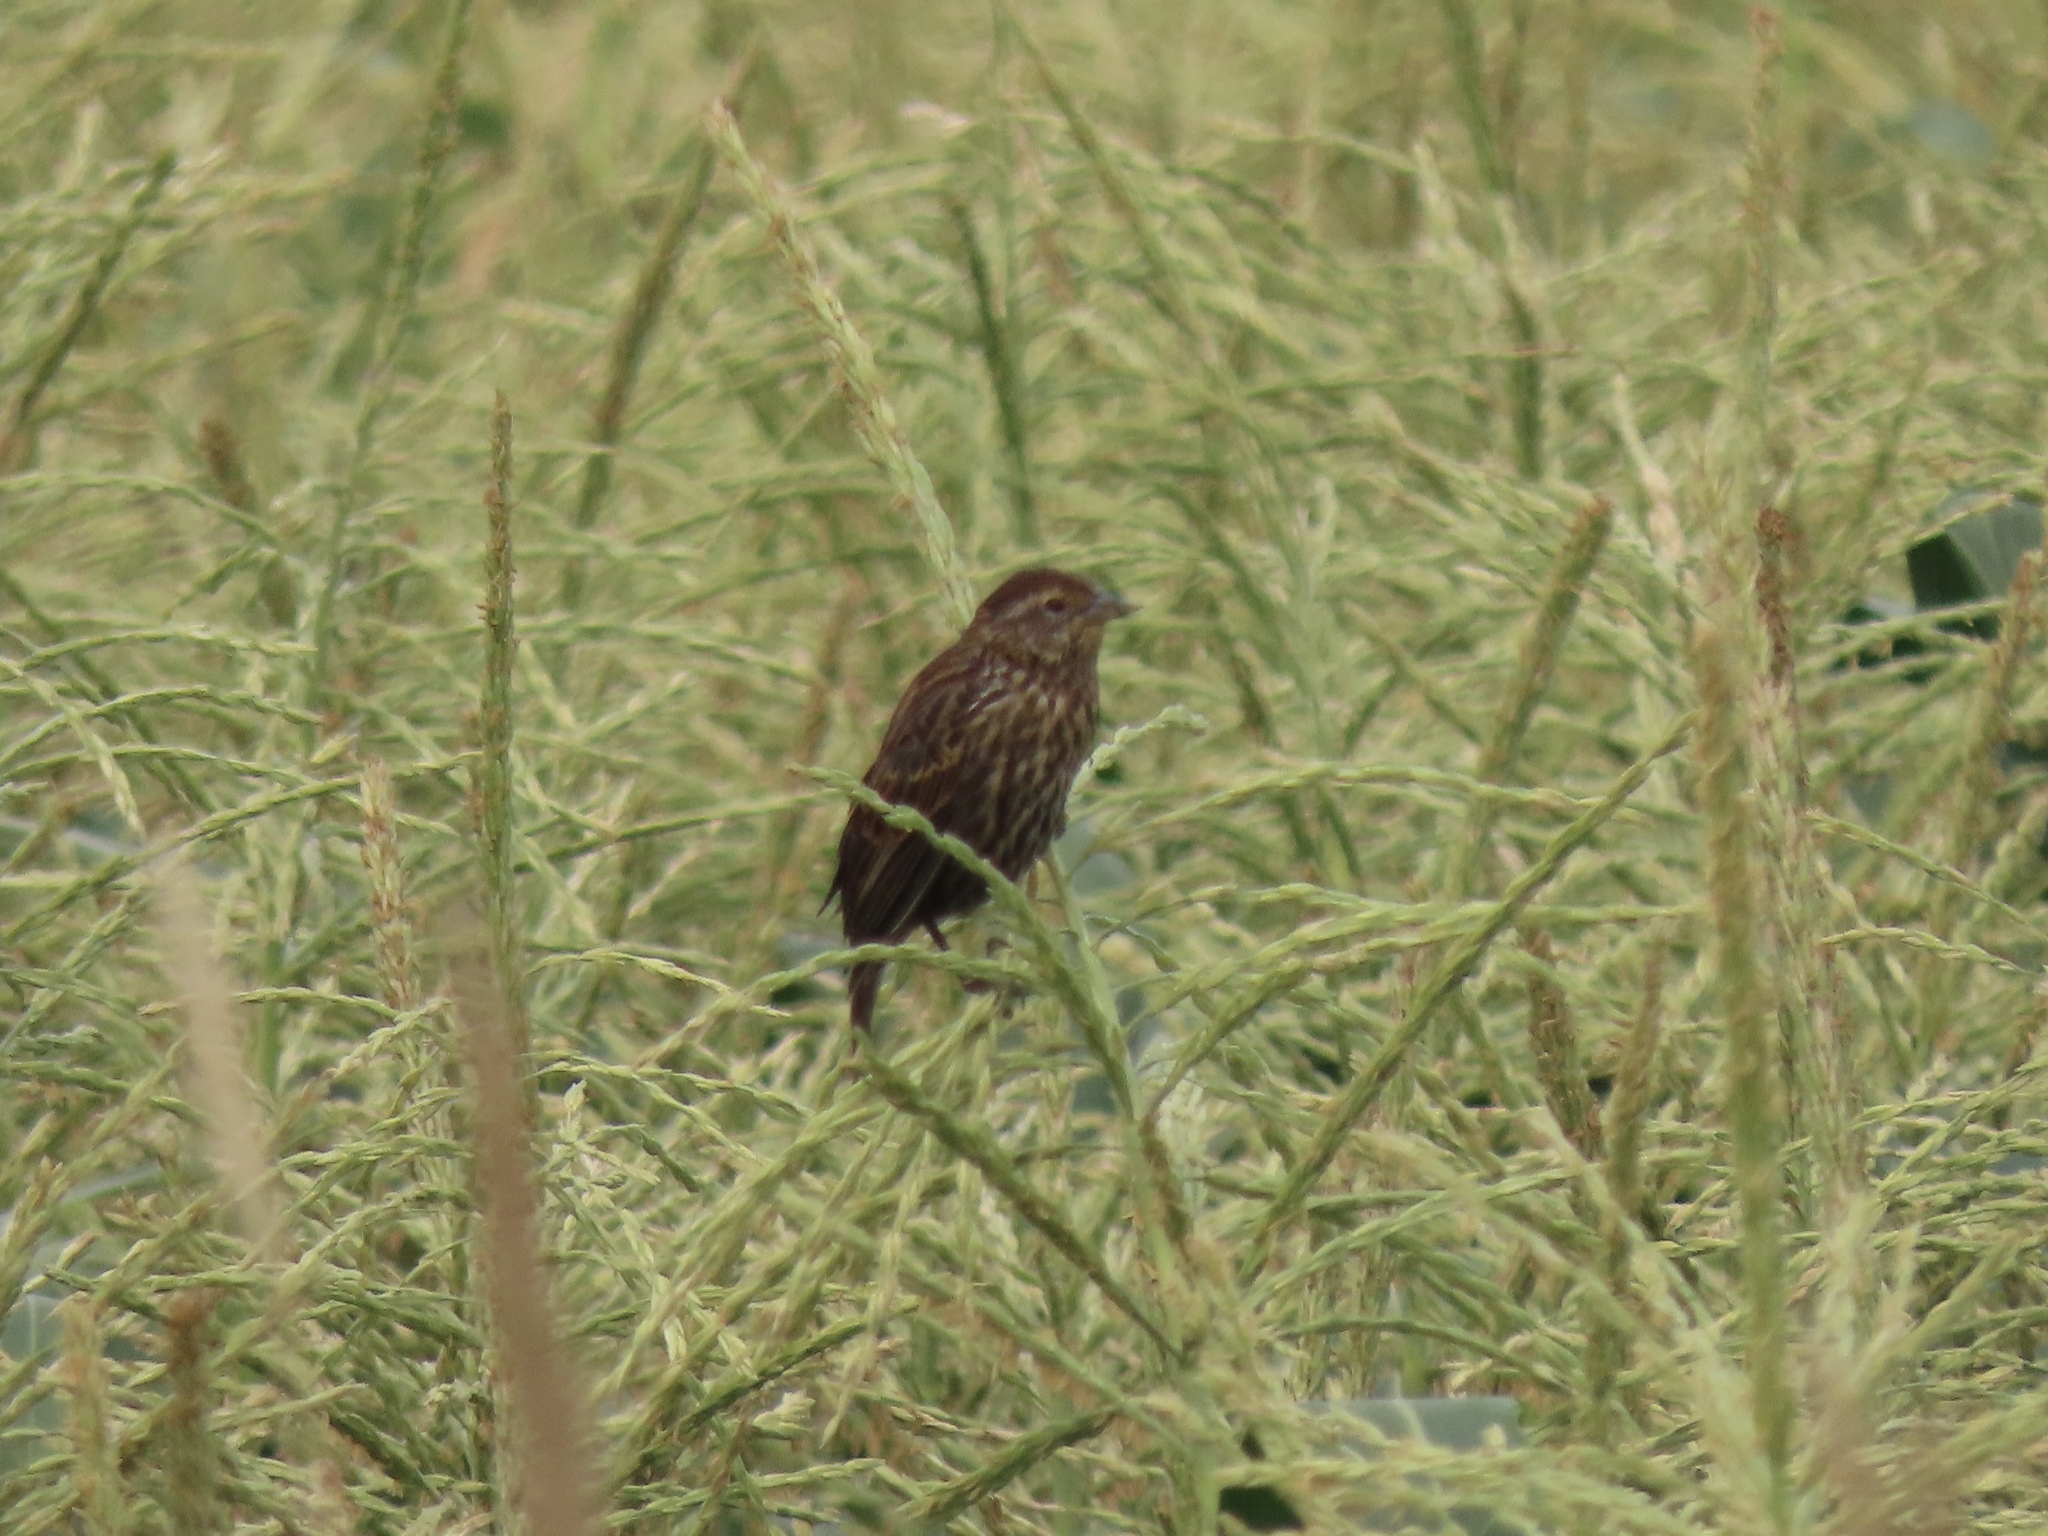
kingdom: Animalia
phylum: Chordata
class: Aves
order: Passeriformes
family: Icteridae
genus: Agelaius
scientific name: Agelaius phoeniceus
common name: Red-winged blackbird
